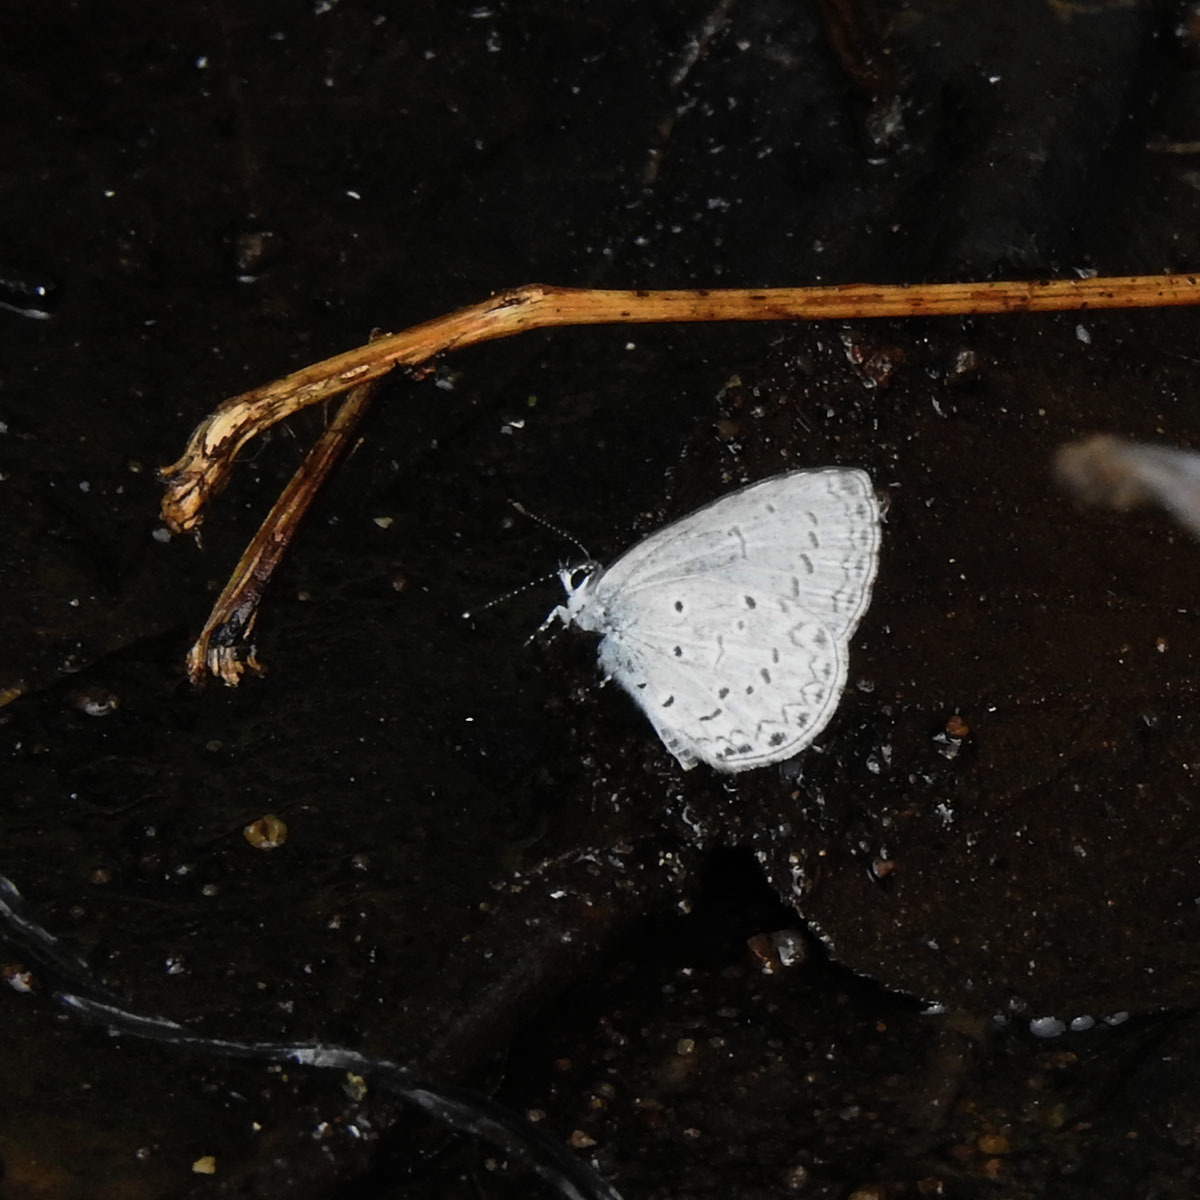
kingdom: Animalia
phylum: Arthropoda
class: Insecta
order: Lepidoptera
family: Lycaenidae
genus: Celastrina
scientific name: Celastrina lavendularis
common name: Plain hedge blue
